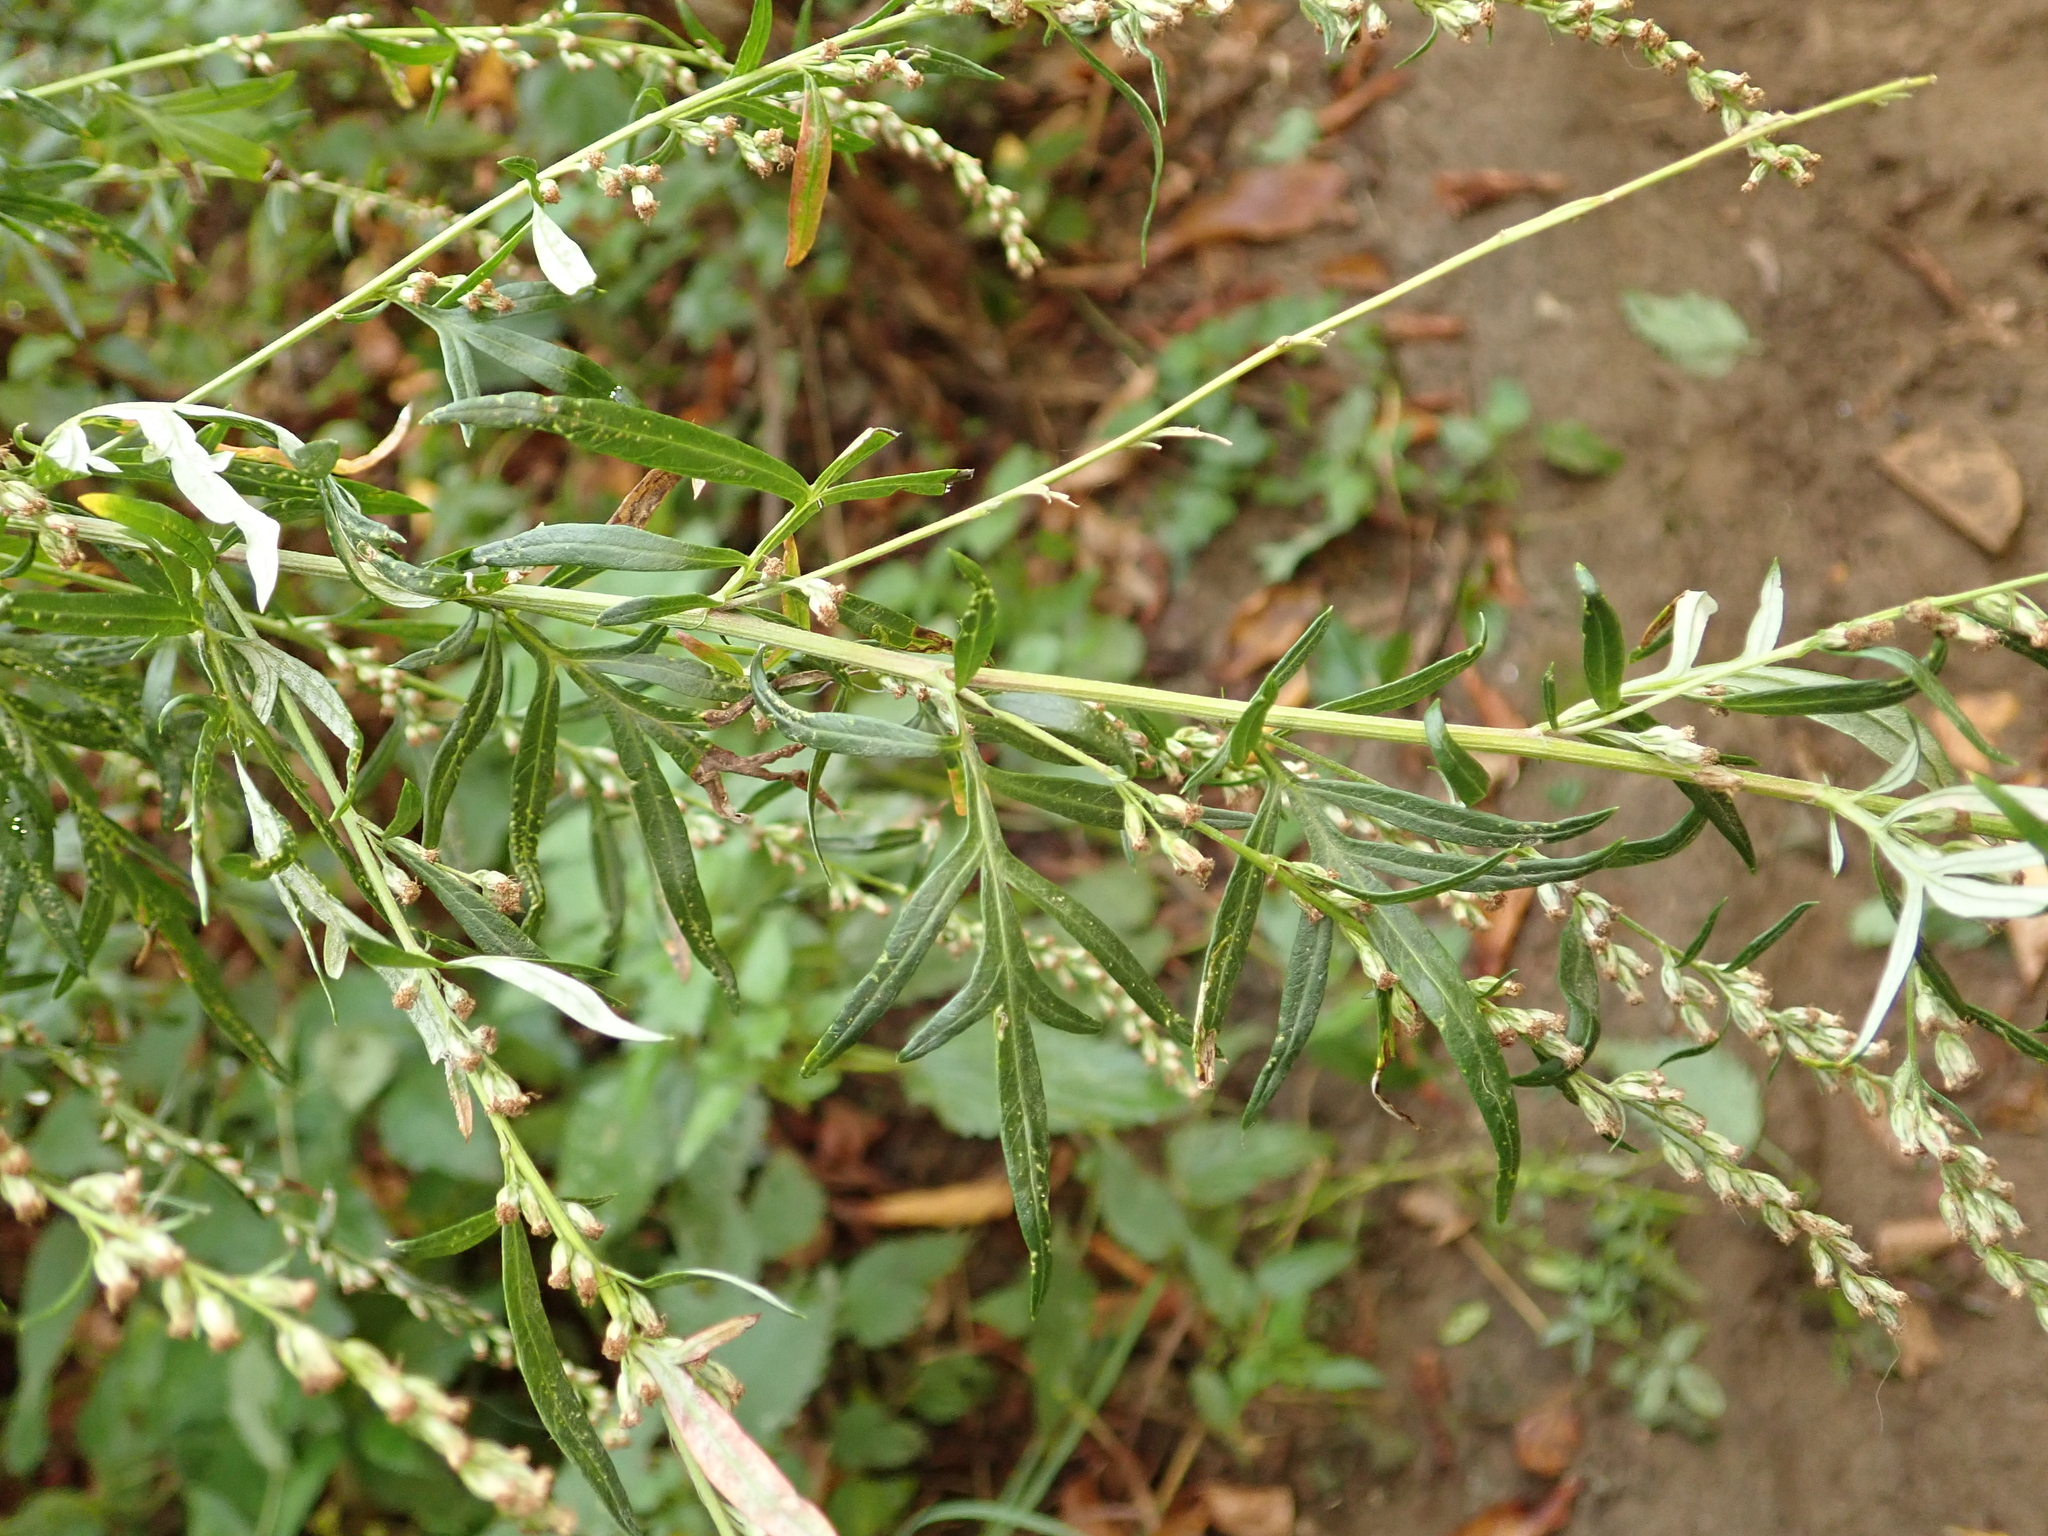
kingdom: Plantae
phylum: Tracheophyta
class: Magnoliopsida
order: Asterales
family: Asteraceae
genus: Artemisia
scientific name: Artemisia vulgaris
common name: Mugwort
